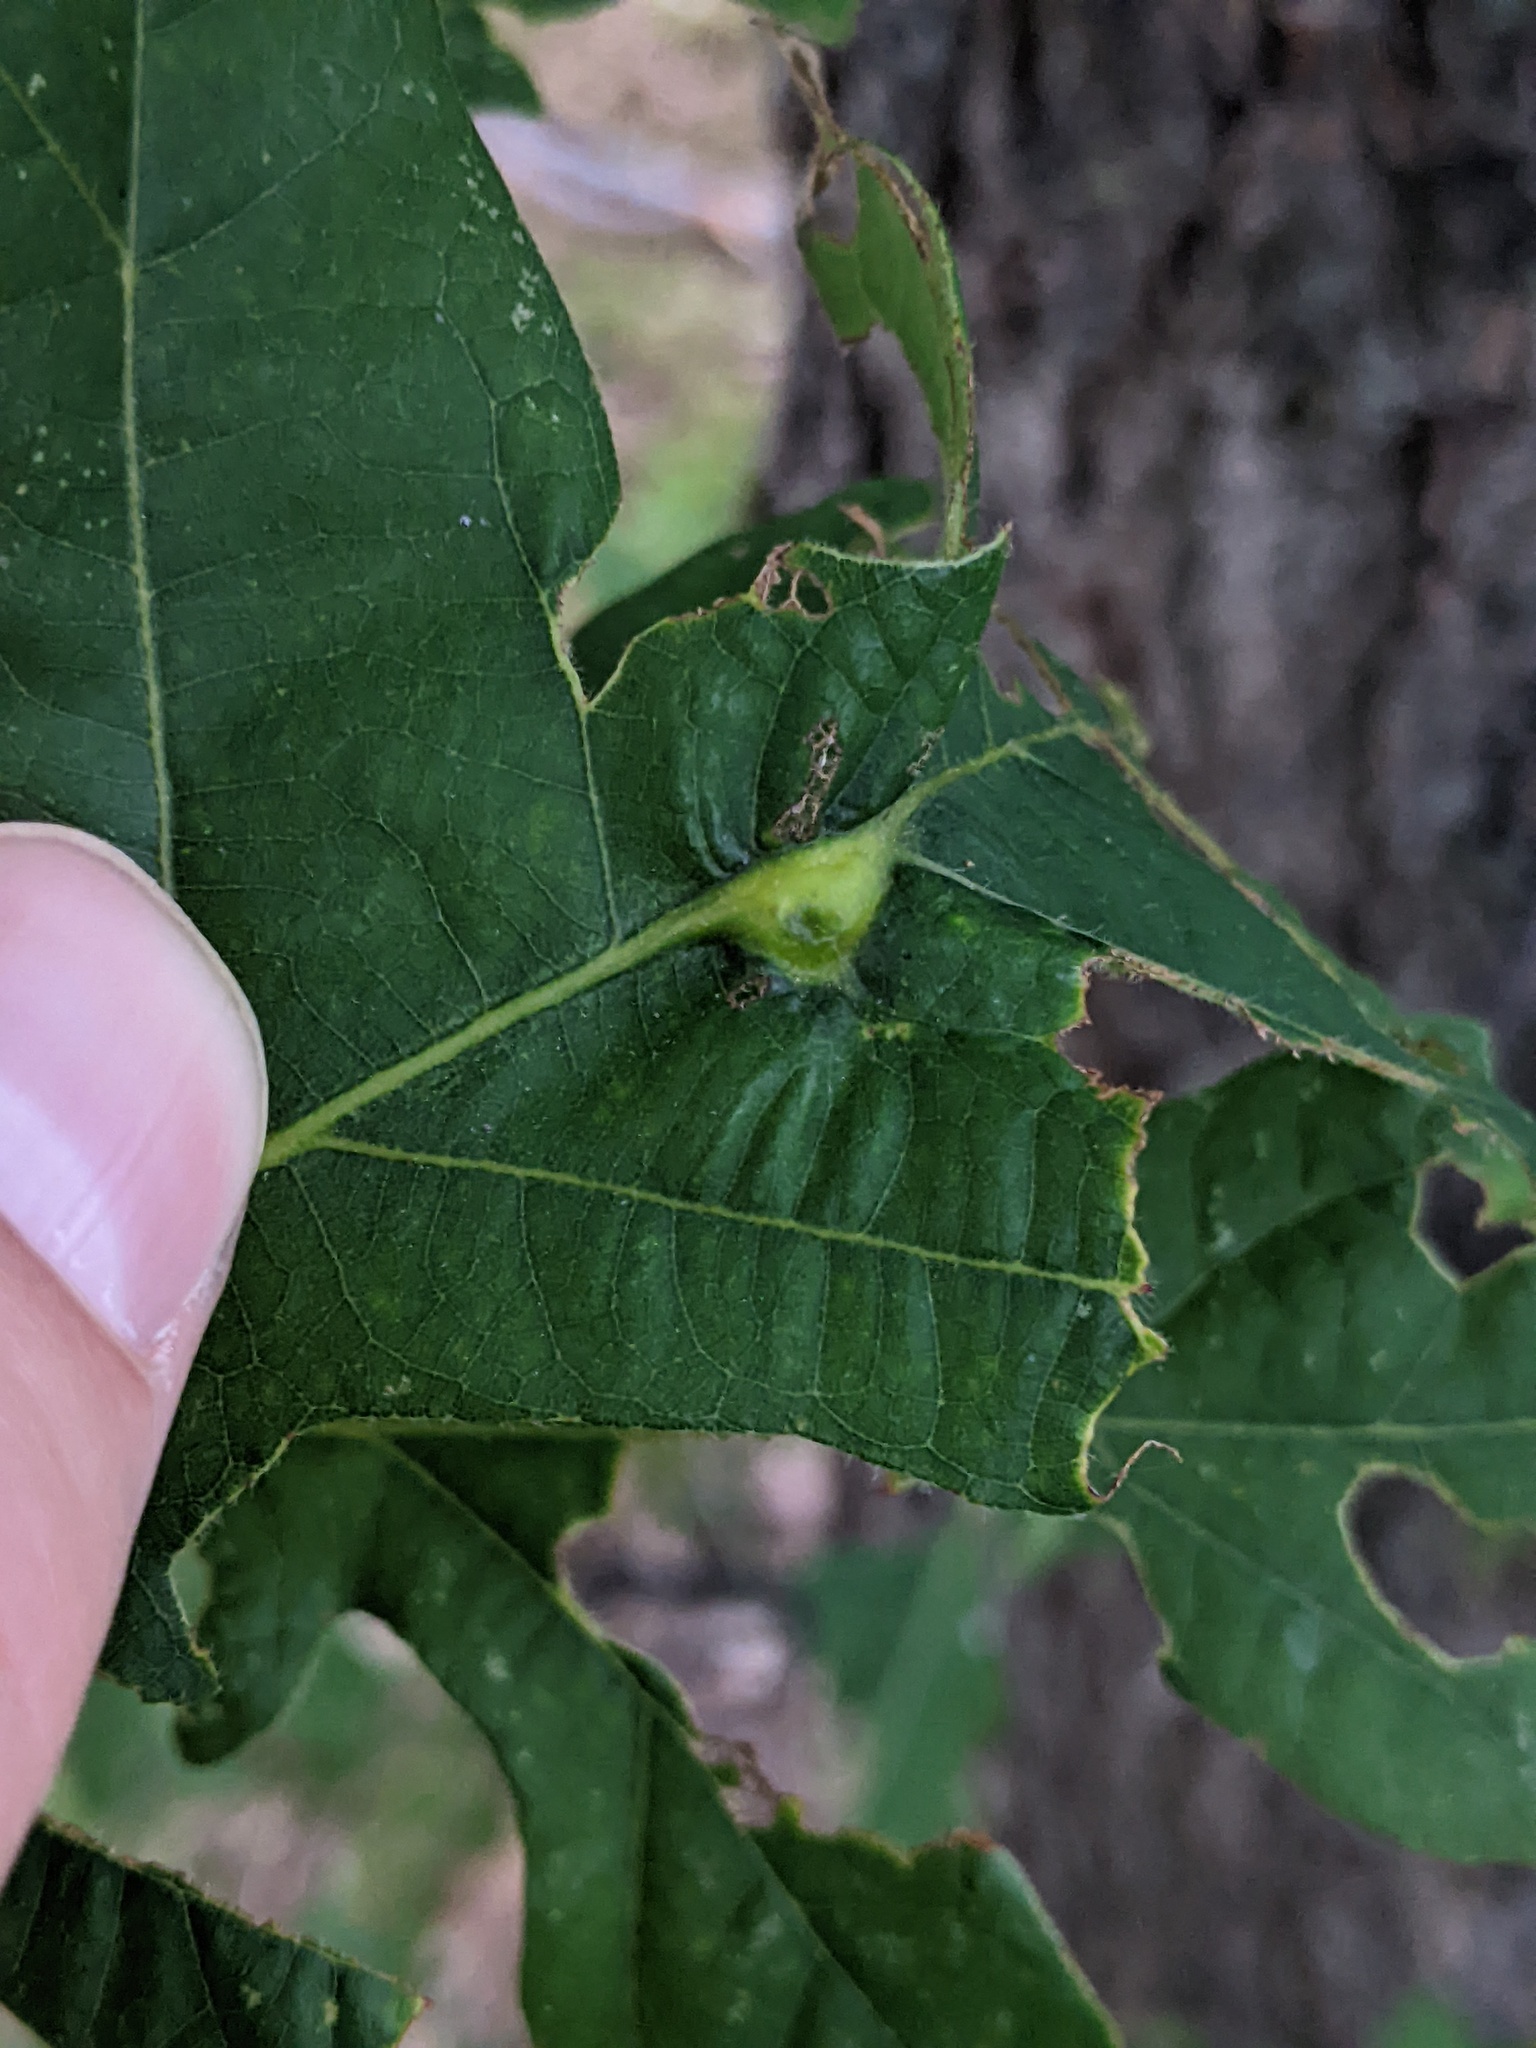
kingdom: Animalia
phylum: Arthropoda
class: Insecta
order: Hymenoptera
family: Cynipidae
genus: Bassettia
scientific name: Bassettia flavipes
